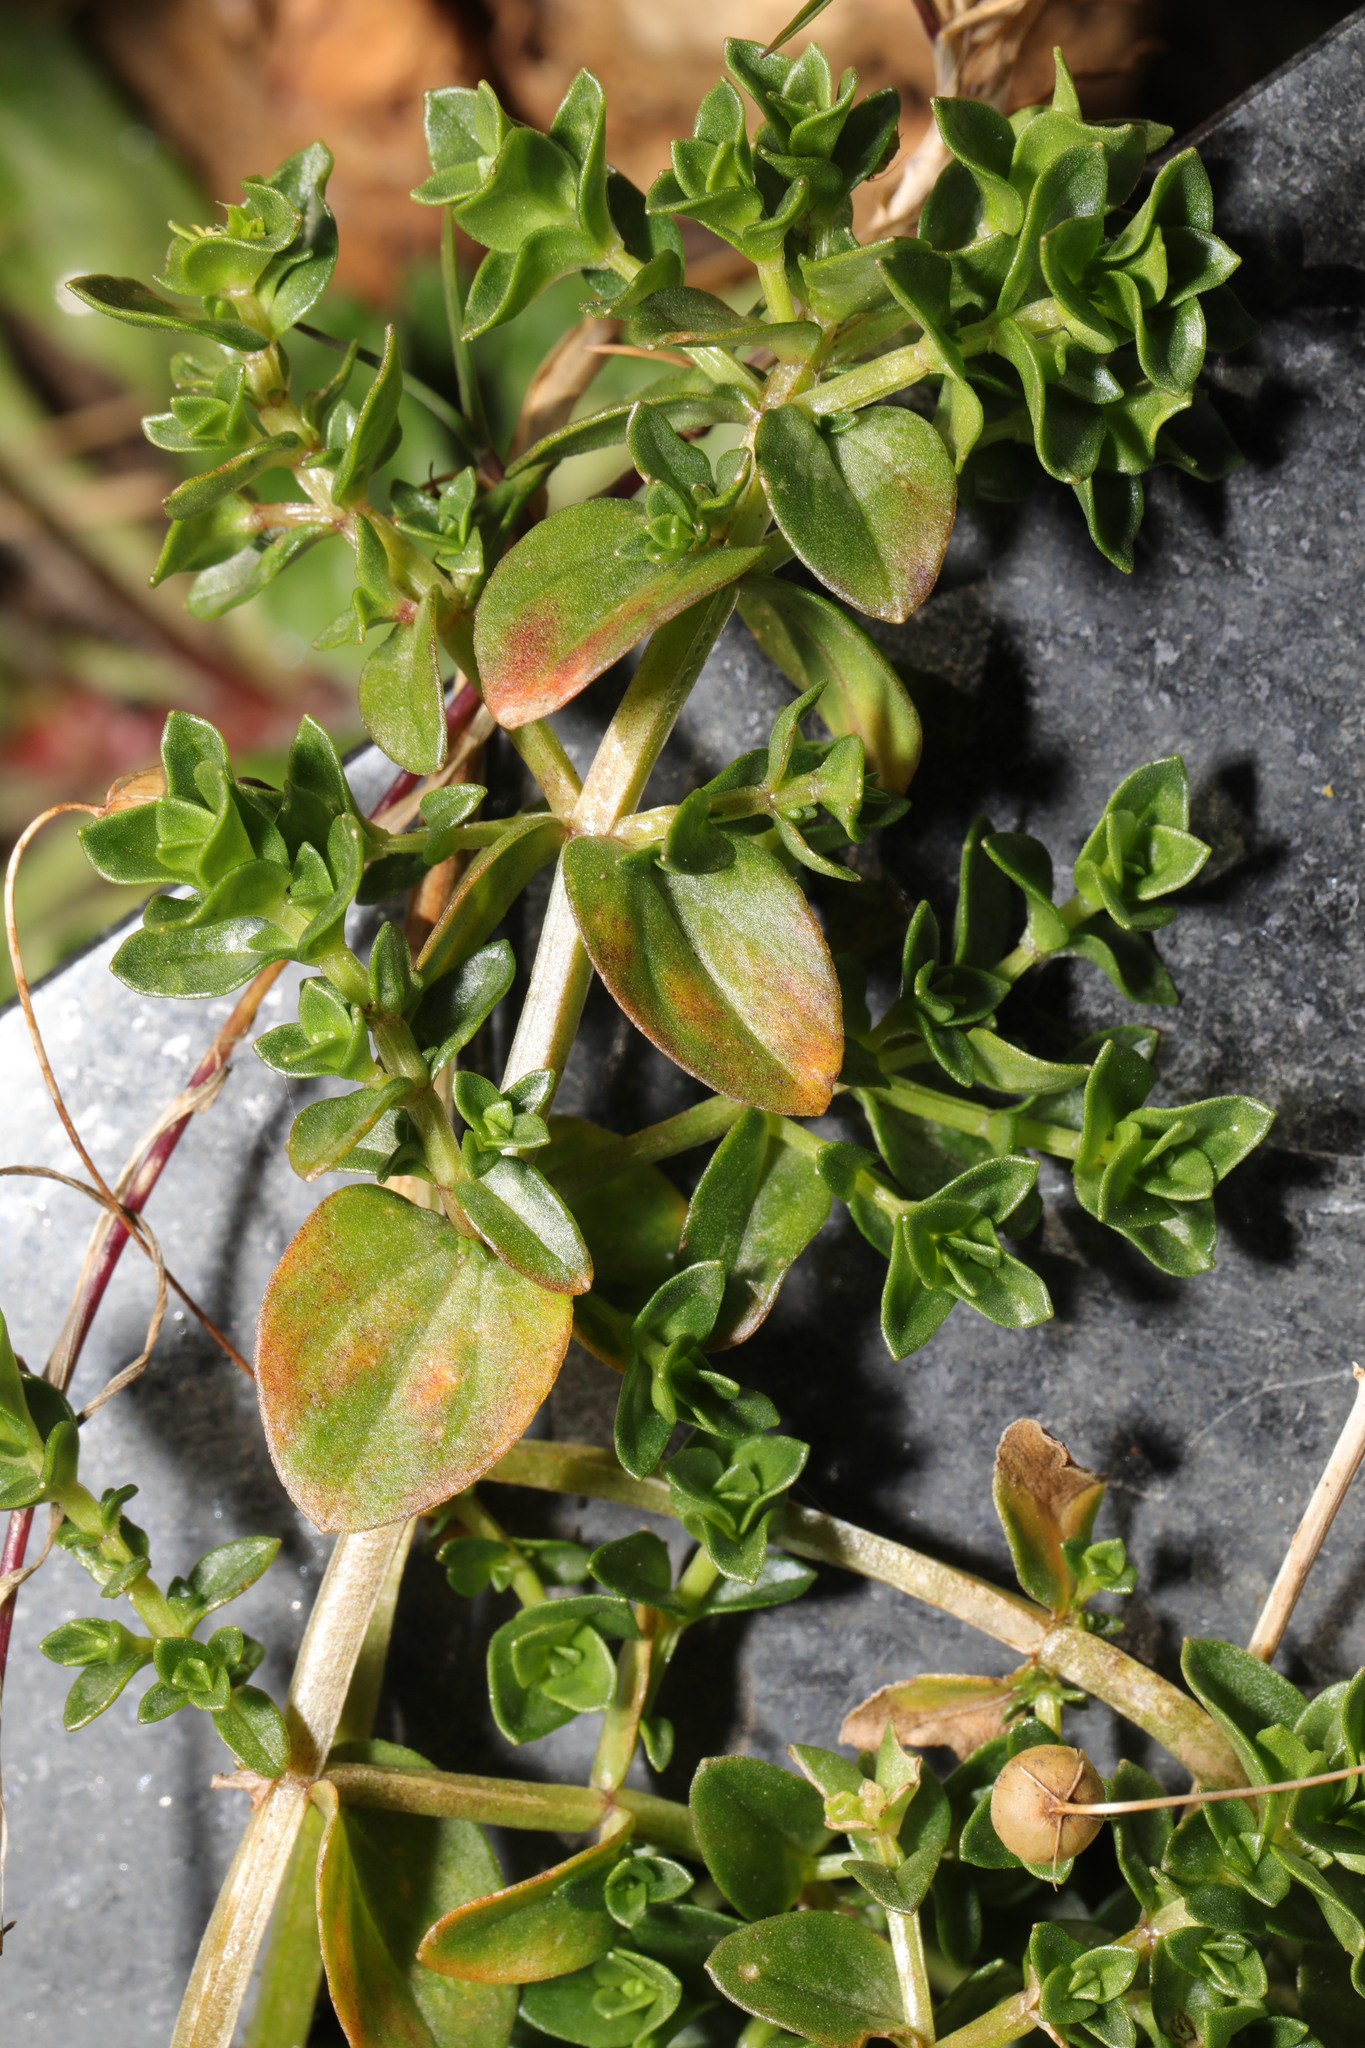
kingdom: Plantae
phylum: Tracheophyta
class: Magnoliopsida
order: Ericales
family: Primulaceae
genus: Lysimachia
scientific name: Lysimachia arvensis
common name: Scarlet pimpernel
